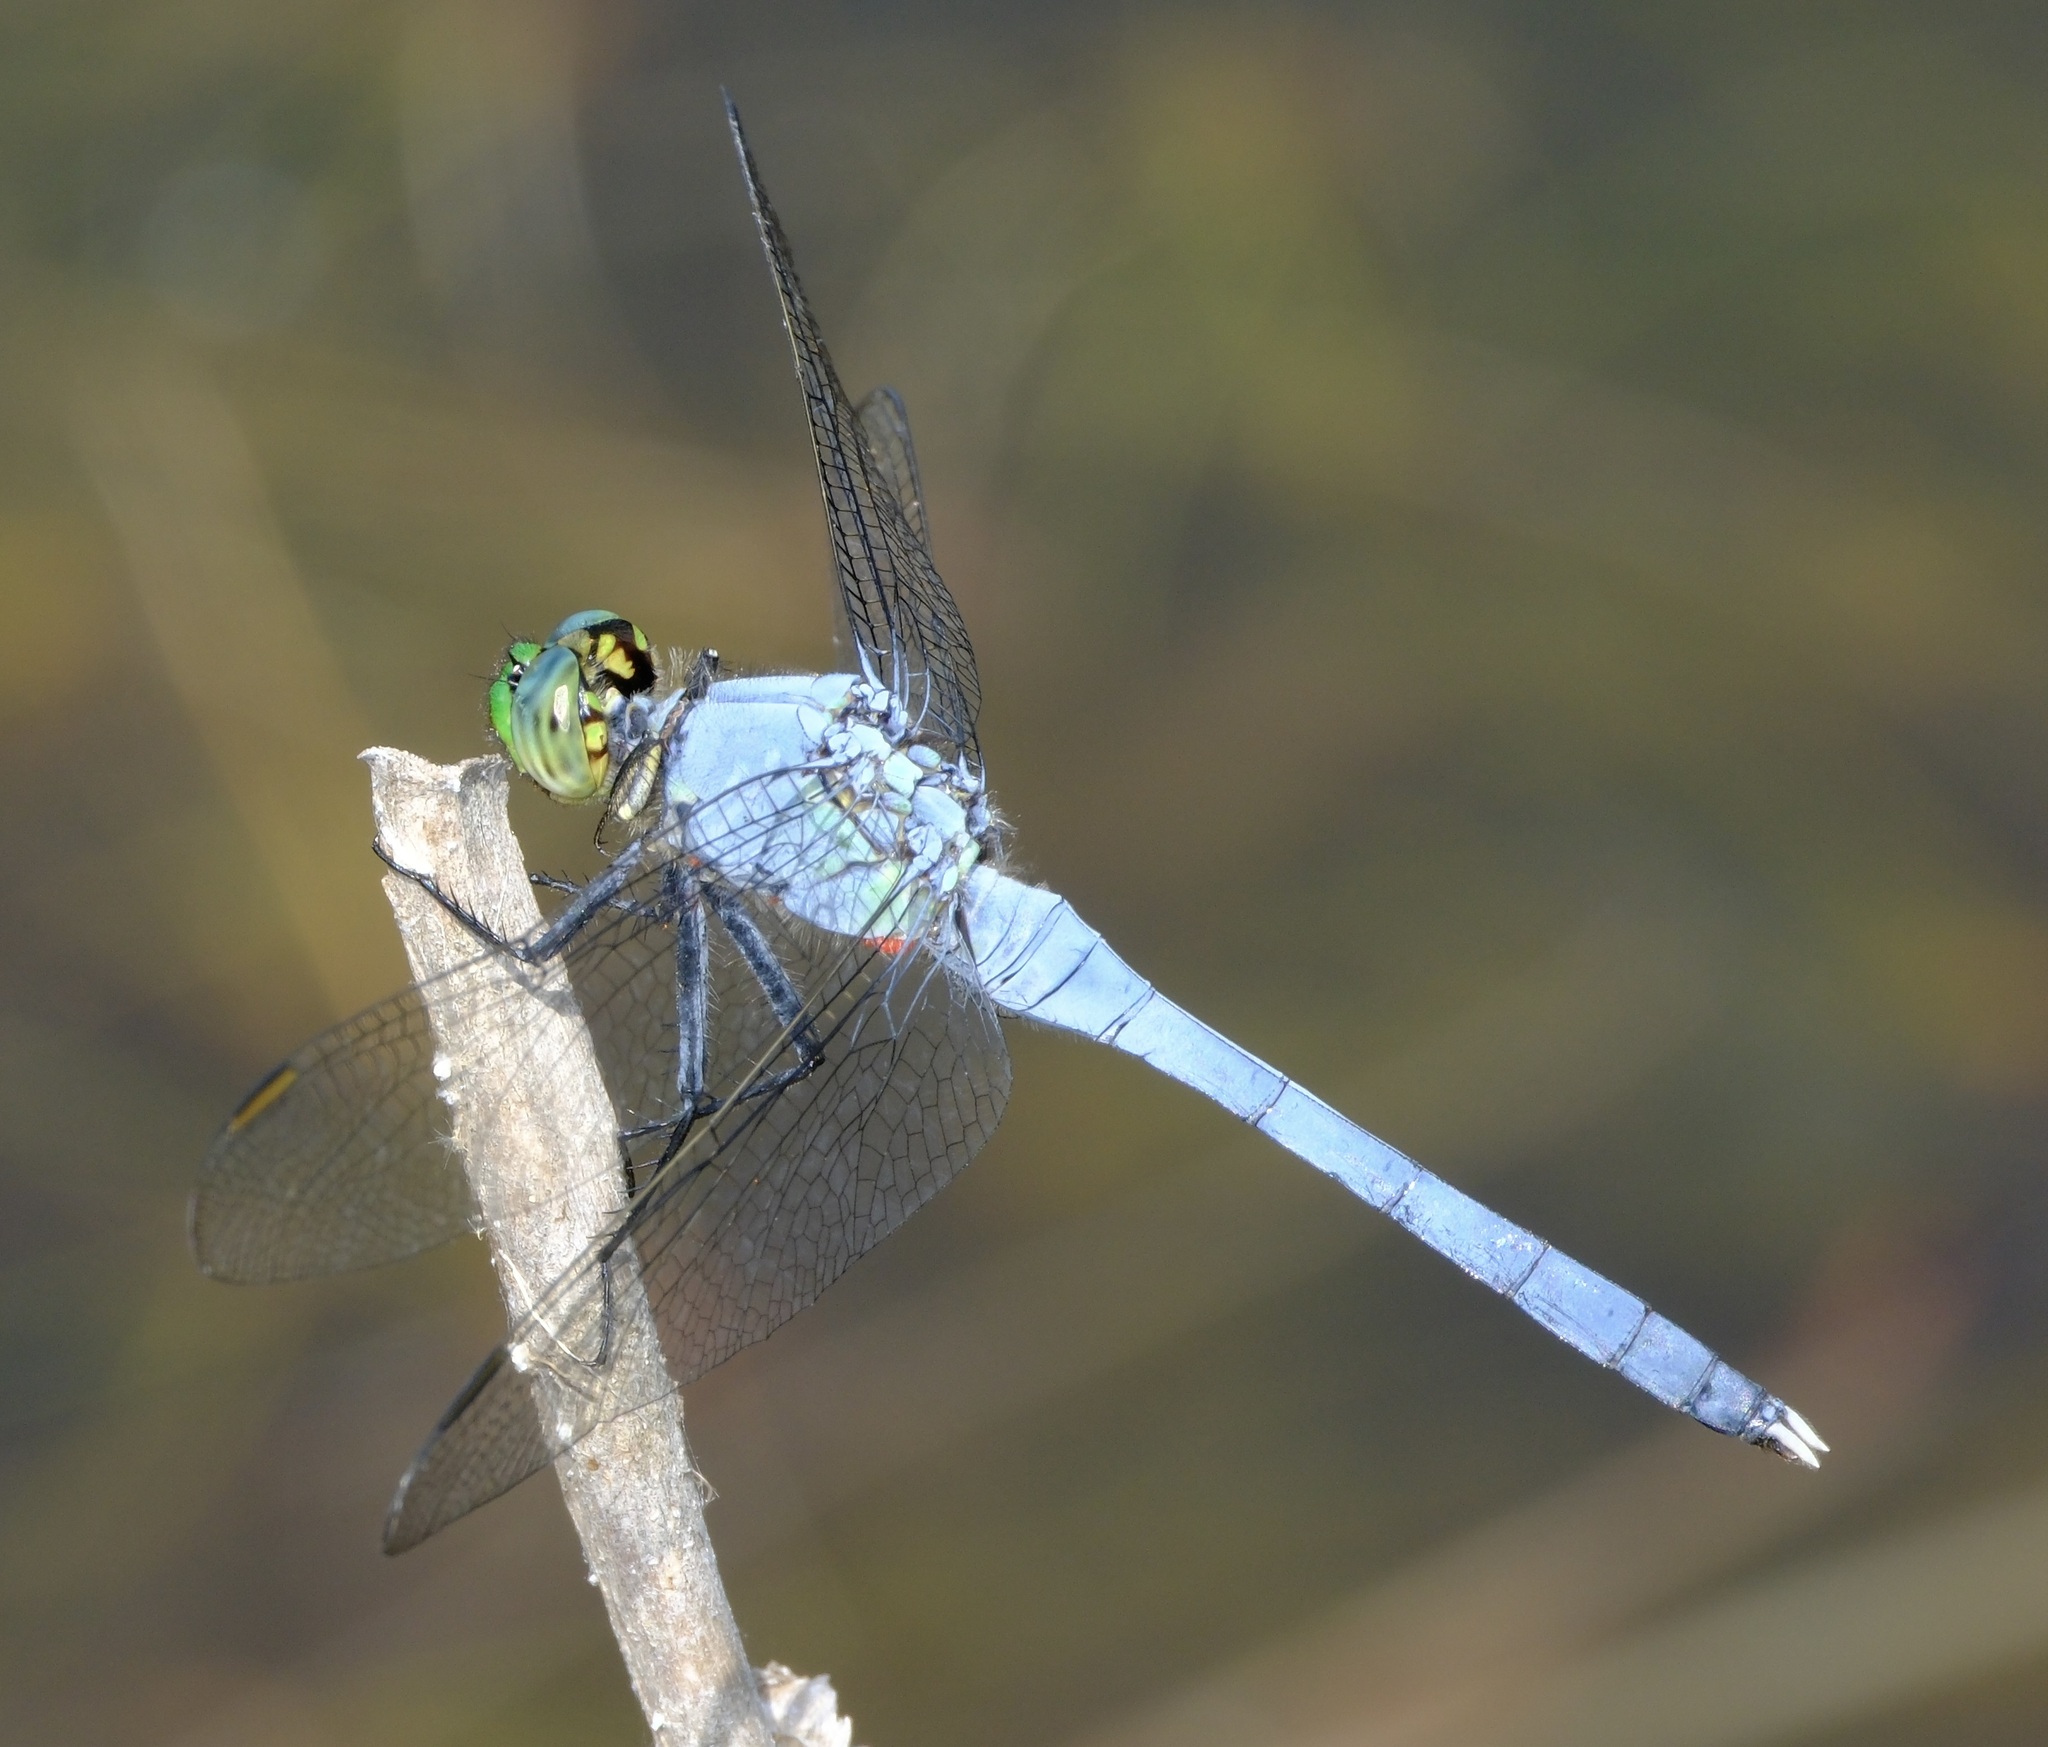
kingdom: Animalia
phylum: Arthropoda
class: Insecta
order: Odonata
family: Libellulidae
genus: Erythemis
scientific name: Erythemis simplicicollis
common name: Eastern pondhawk
